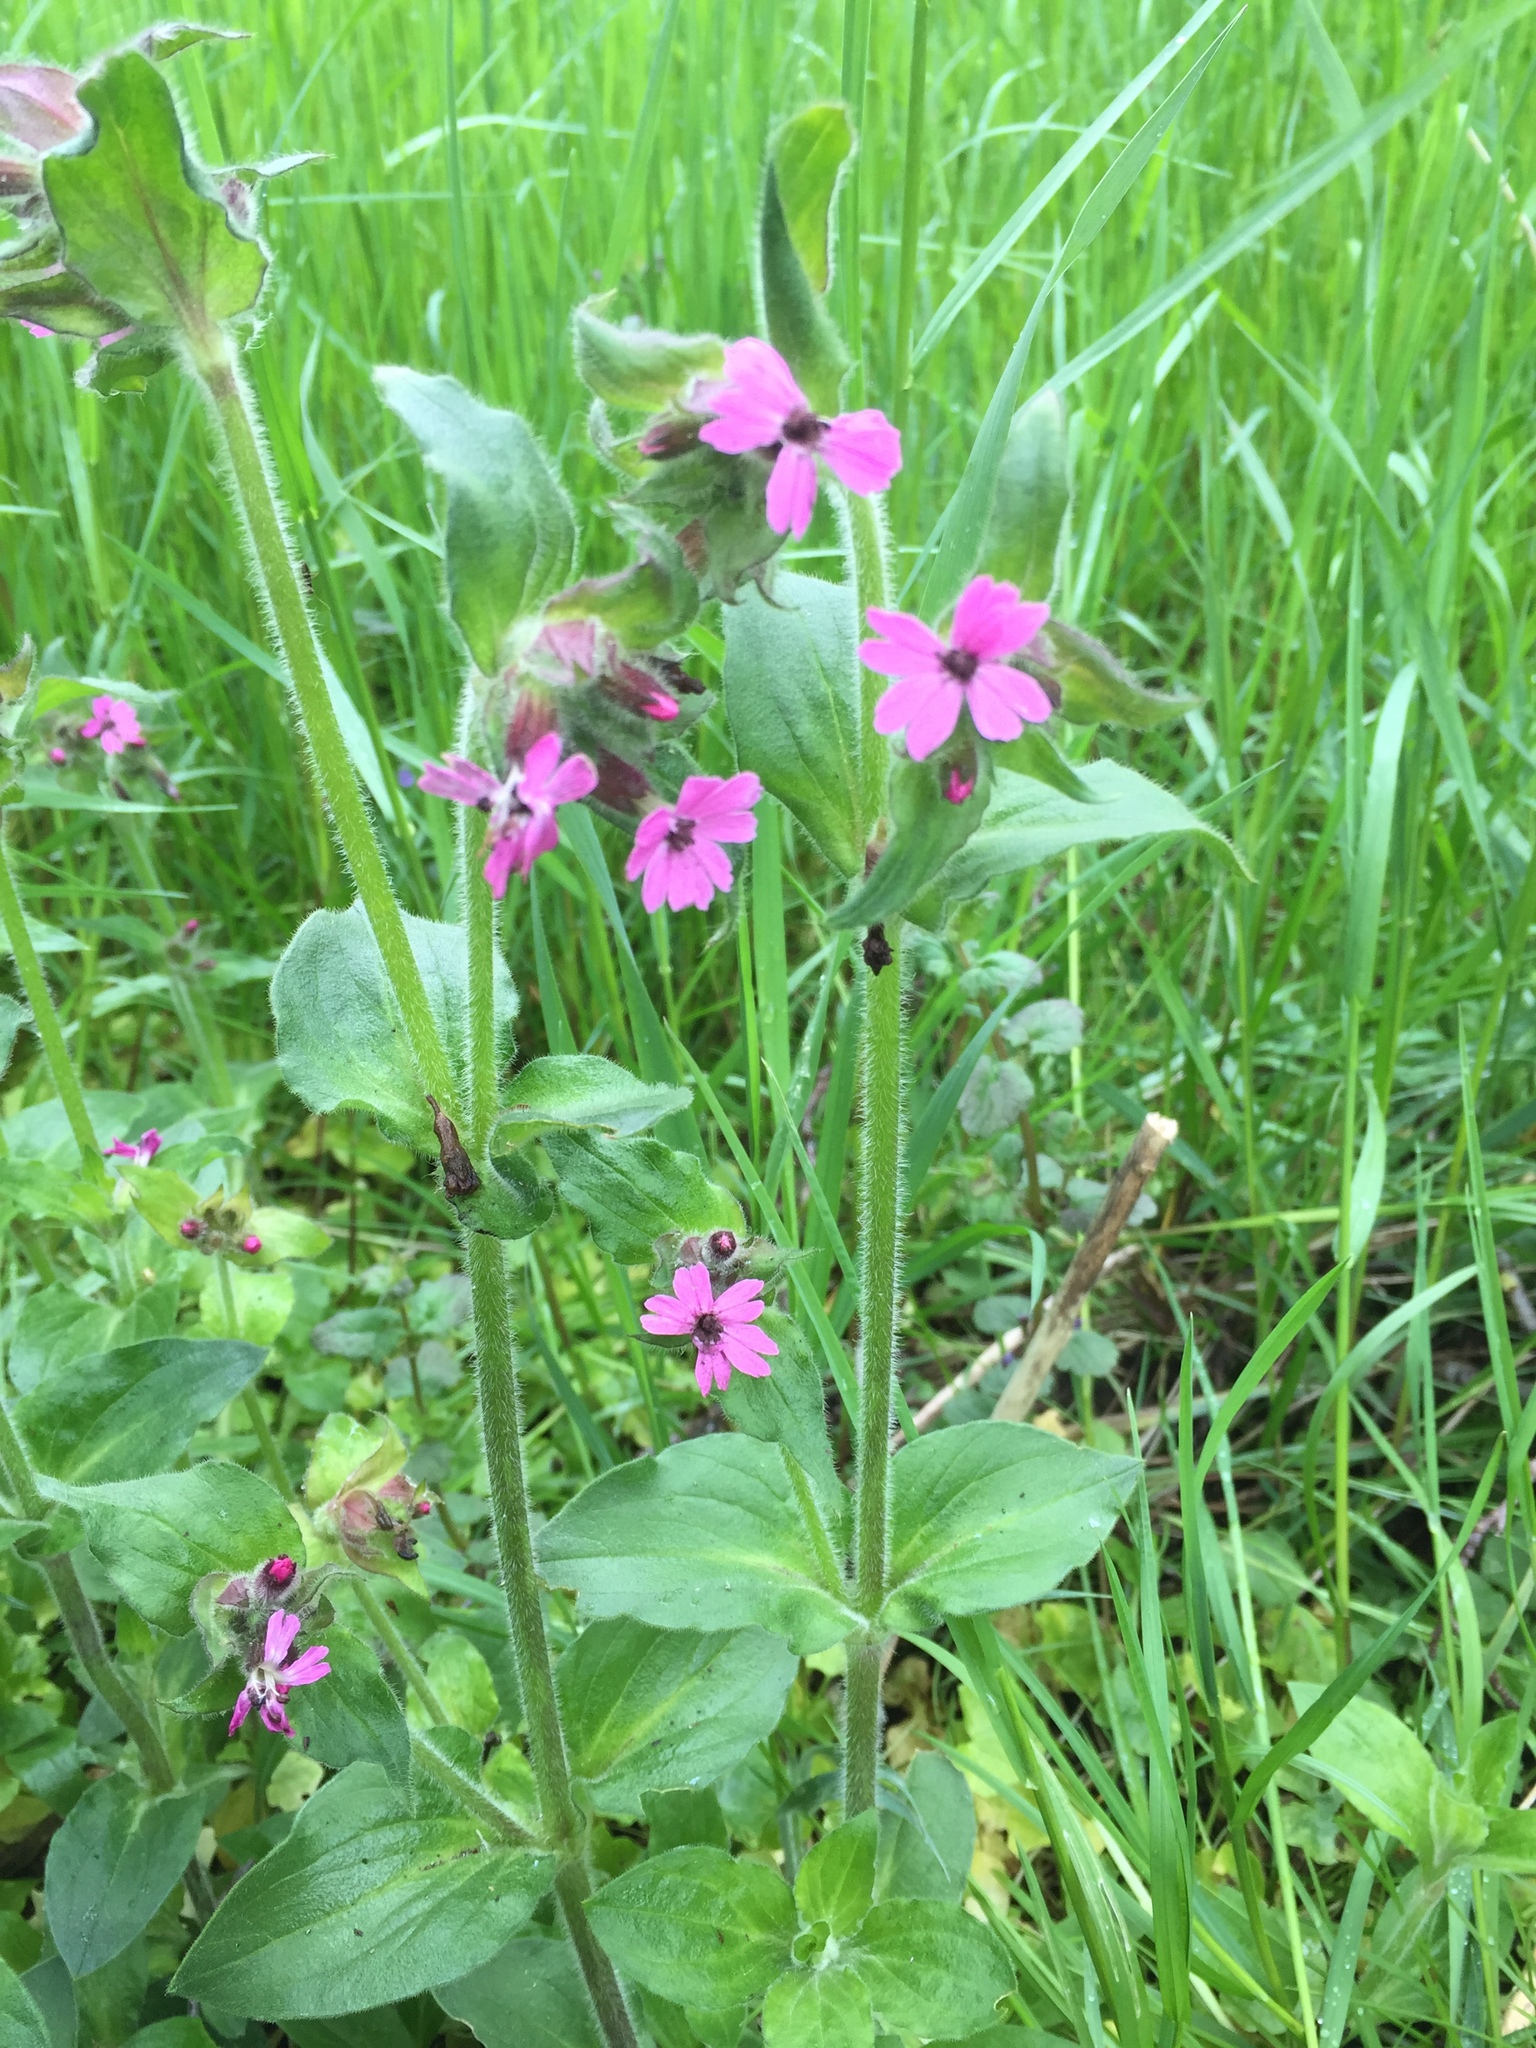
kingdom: Plantae
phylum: Tracheophyta
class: Magnoliopsida
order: Caryophyllales
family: Caryophyllaceae
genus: Silene
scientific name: Silene dioica
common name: Red campion
